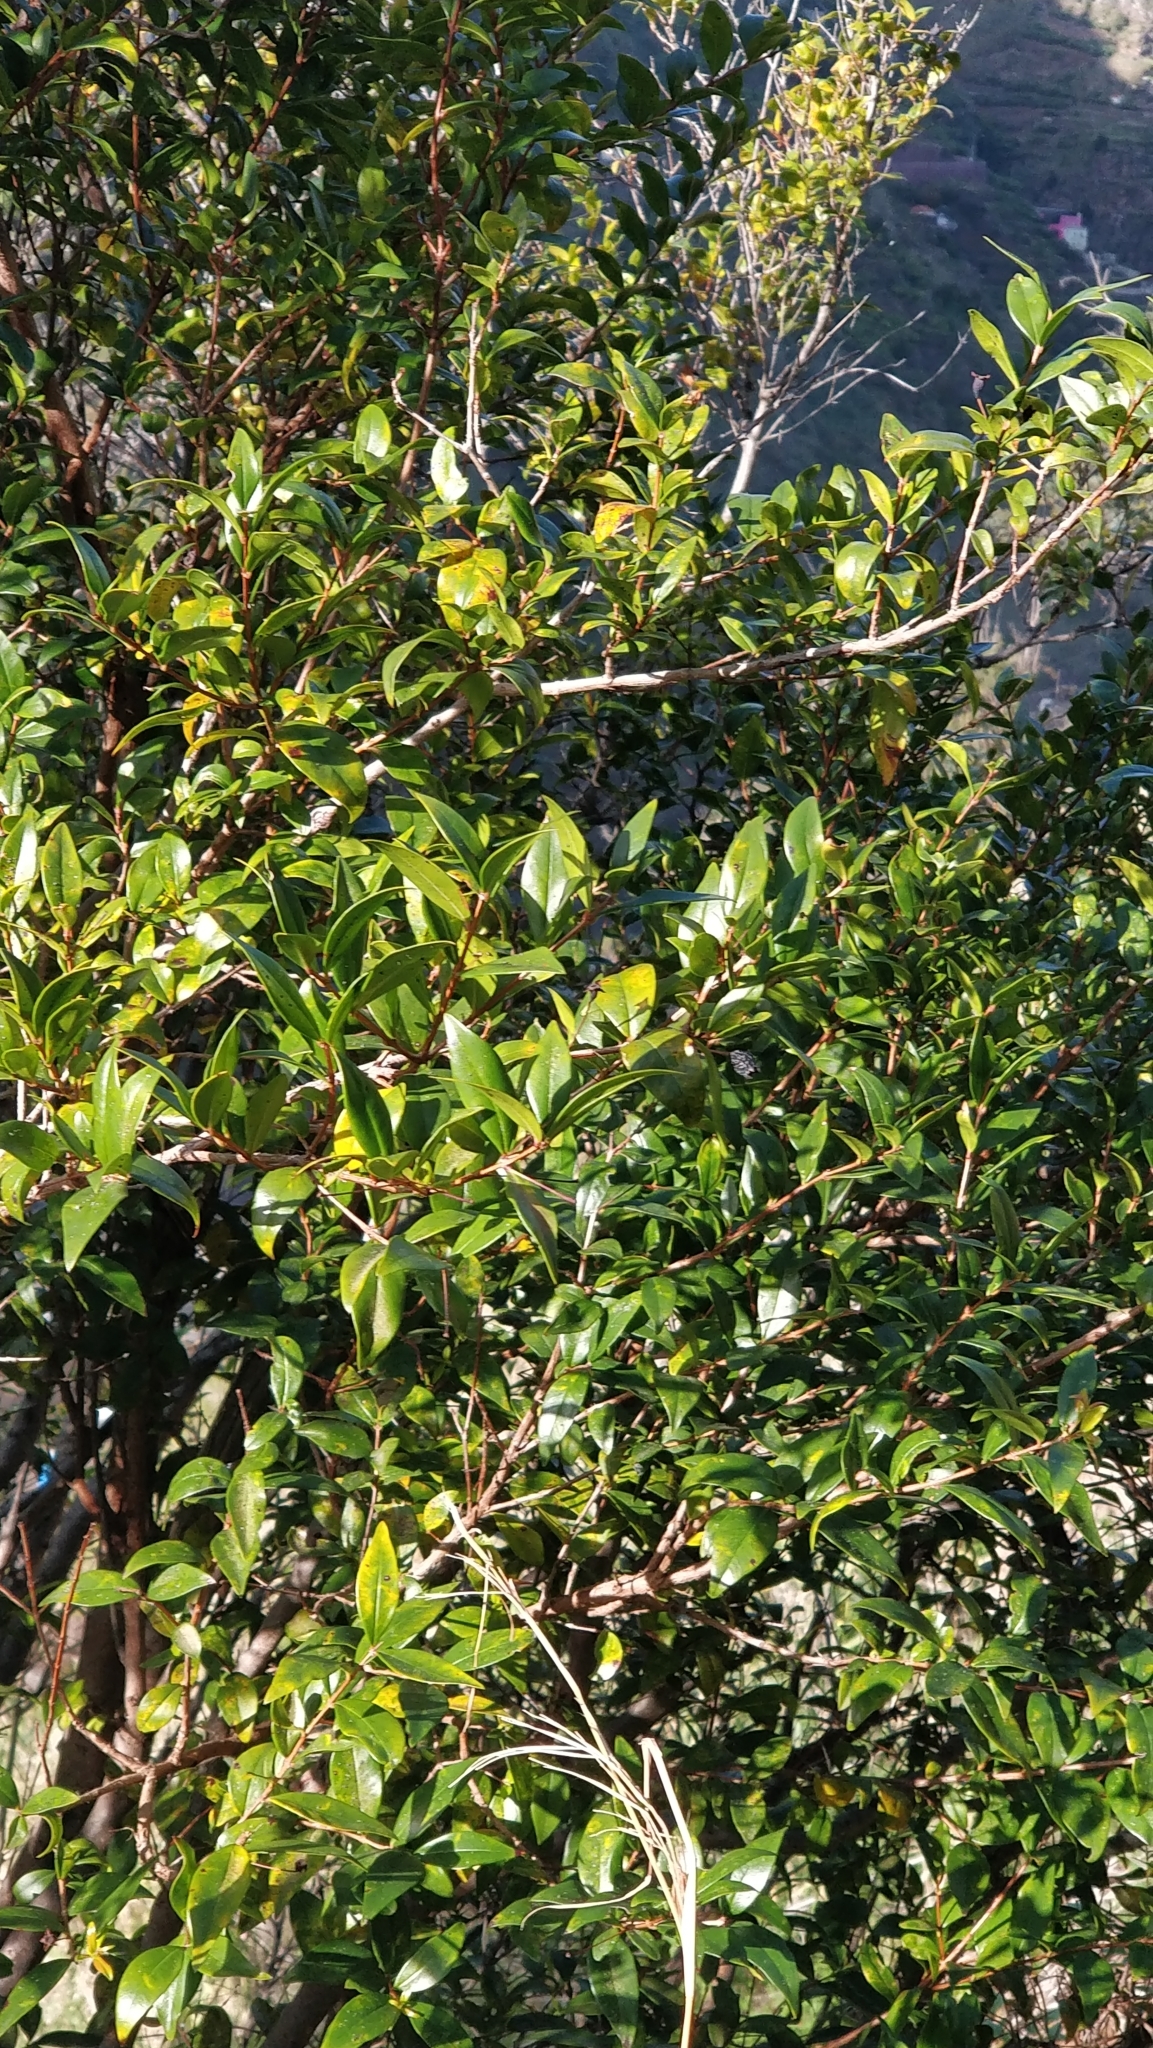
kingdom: Plantae
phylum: Tracheophyta
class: Magnoliopsida
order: Myrtales
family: Myrtaceae
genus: Myrtus
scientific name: Myrtus communis
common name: Myrtle
